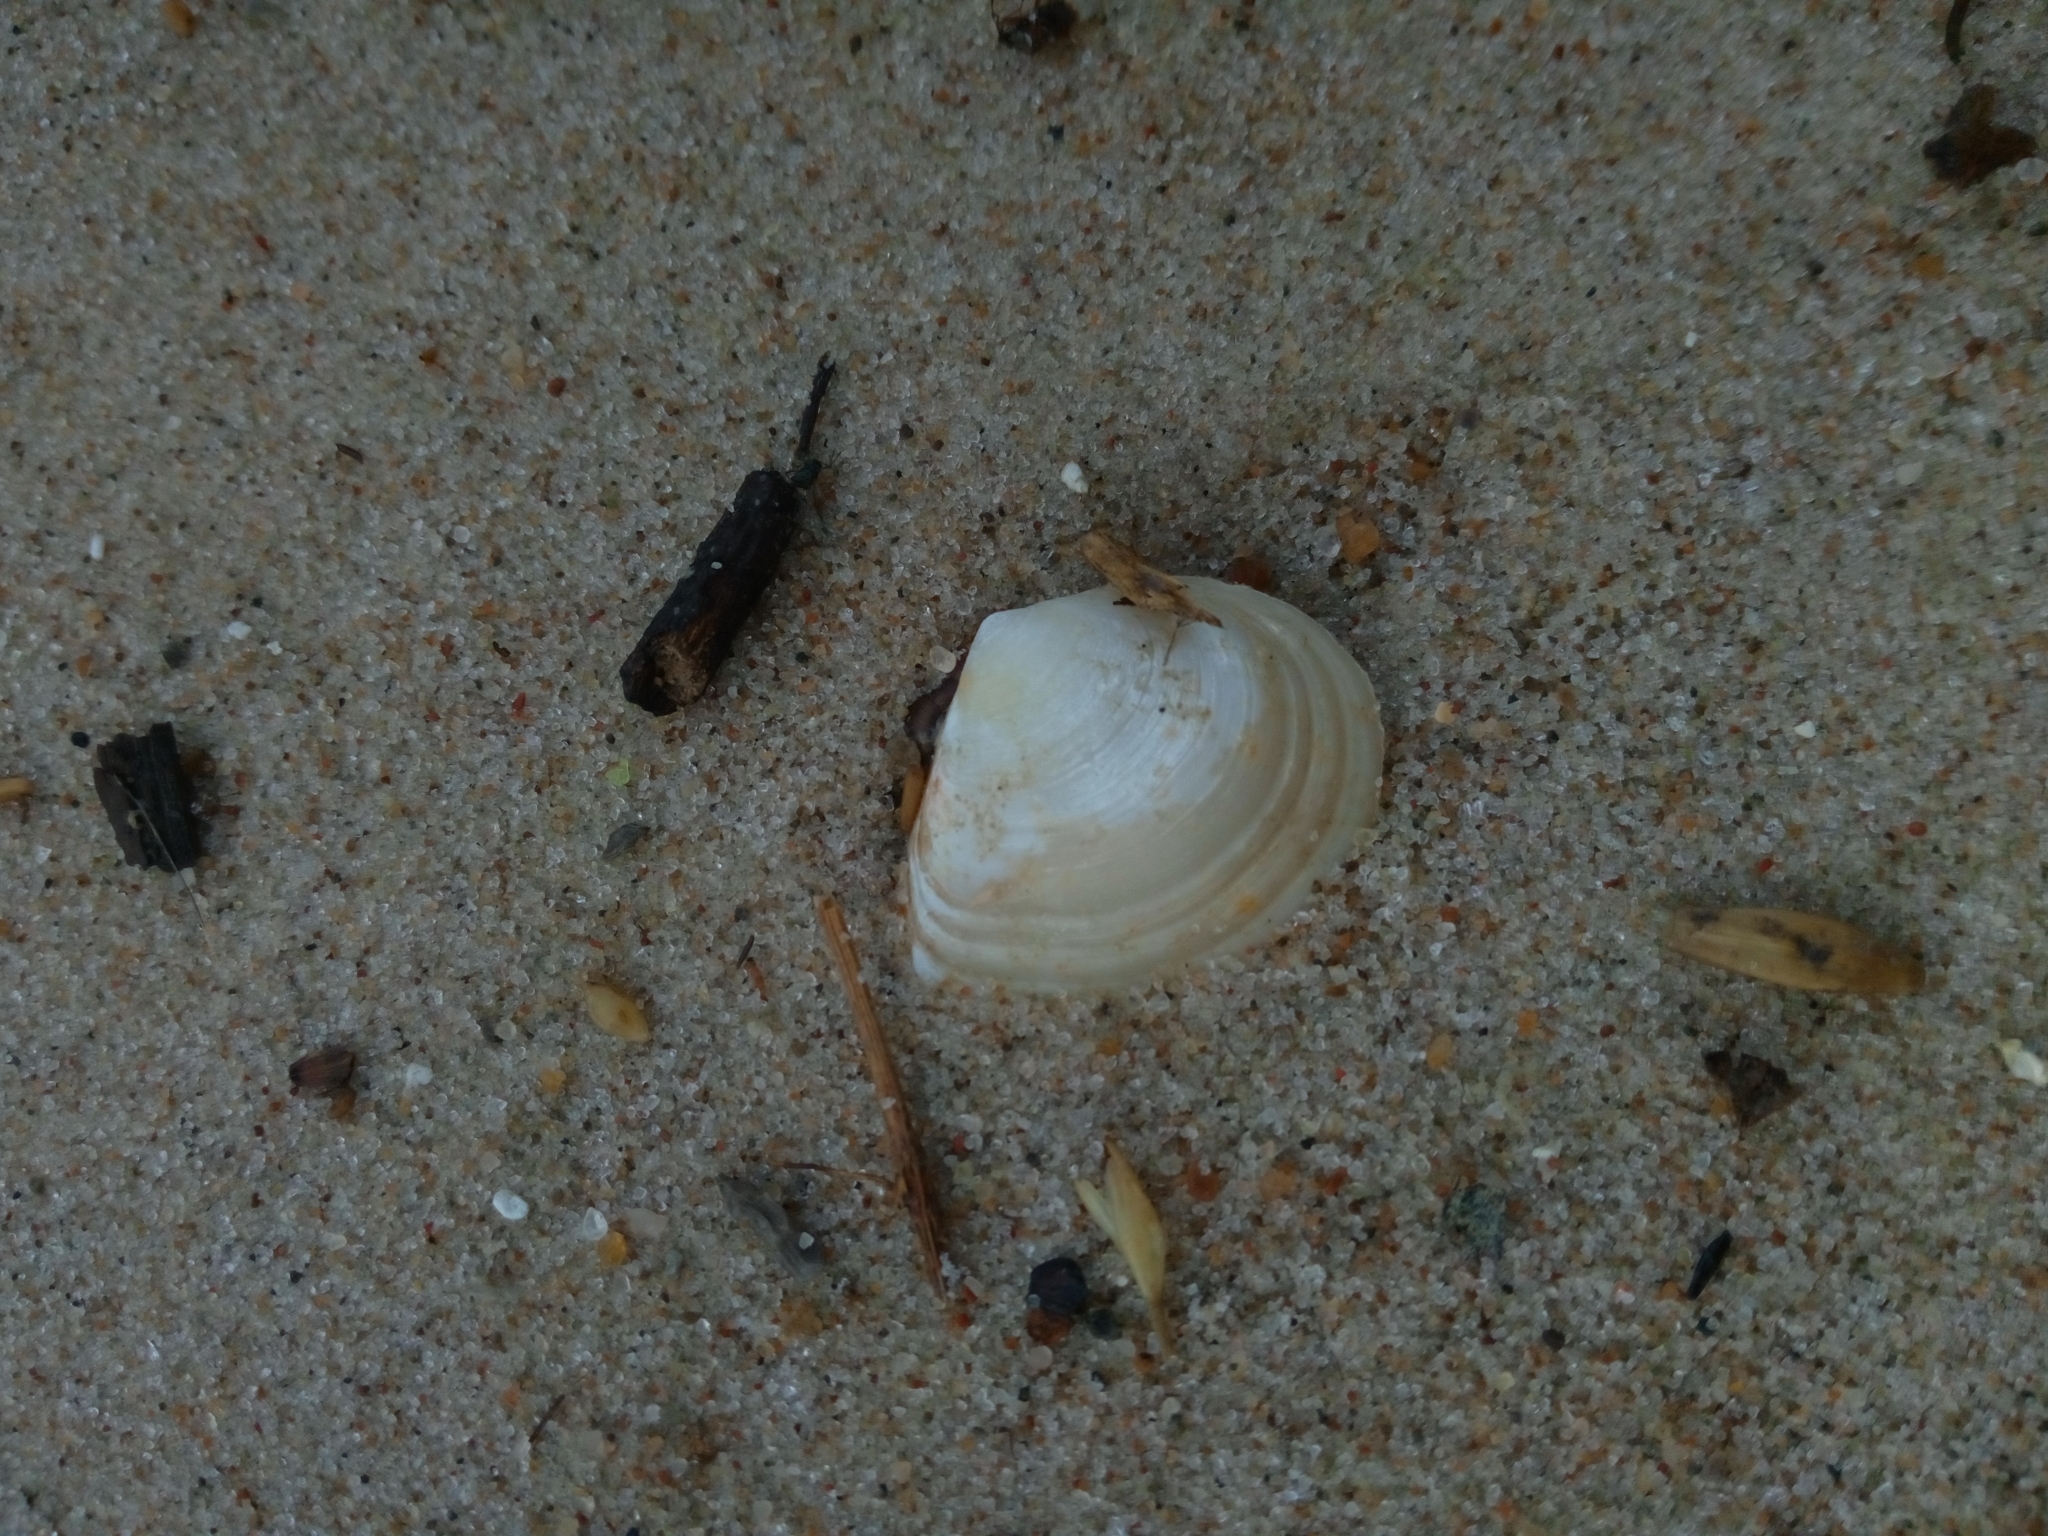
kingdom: Animalia
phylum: Mollusca
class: Bivalvia
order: Cardiida
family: Tellinidae
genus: Macoma
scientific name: Macoma balthica
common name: Baltic tellin
